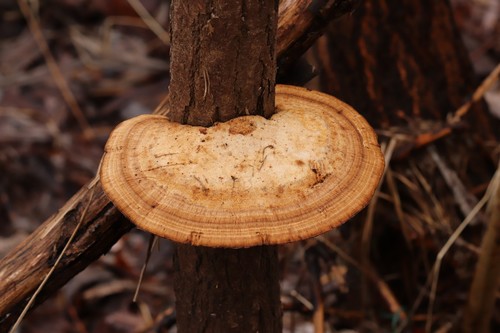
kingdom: Fungi
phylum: Basidiomycota
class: Agaricomycetes
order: Polyporales
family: Polyporaceae
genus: Daedaleopsis
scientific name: Daedaleopsis confragosa
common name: Blushing bracket
